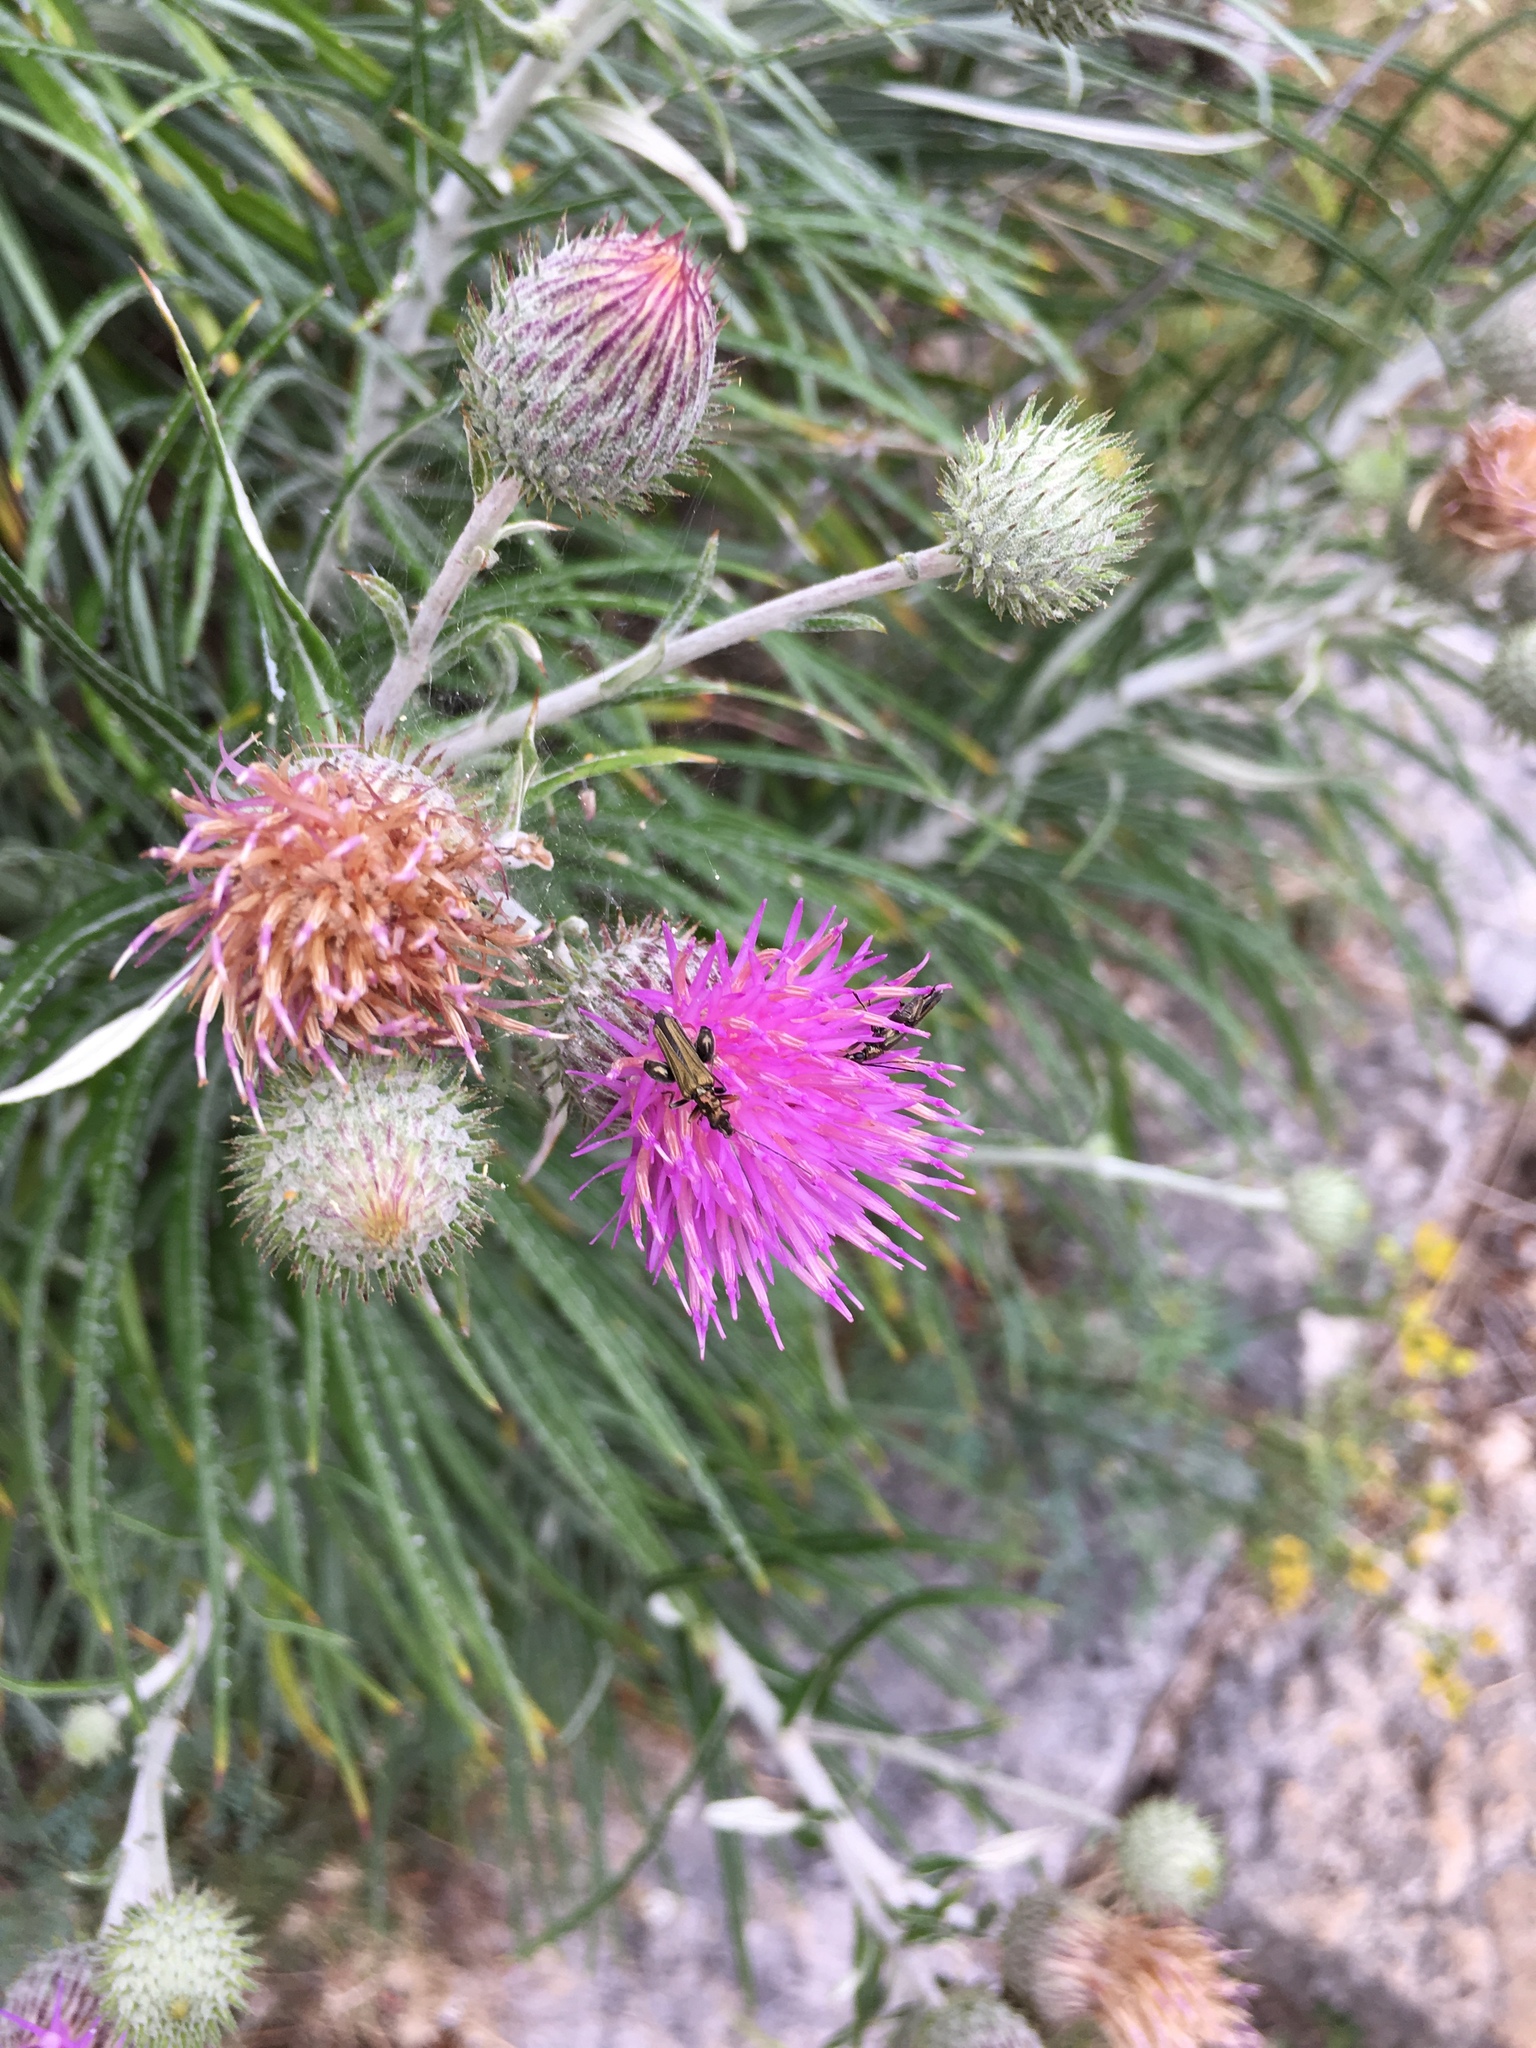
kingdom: Animalia
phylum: Arthropoda
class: Insecta
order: Coleoptera
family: Oedemeridae
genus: Oedemera
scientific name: Oedemera flavipes
